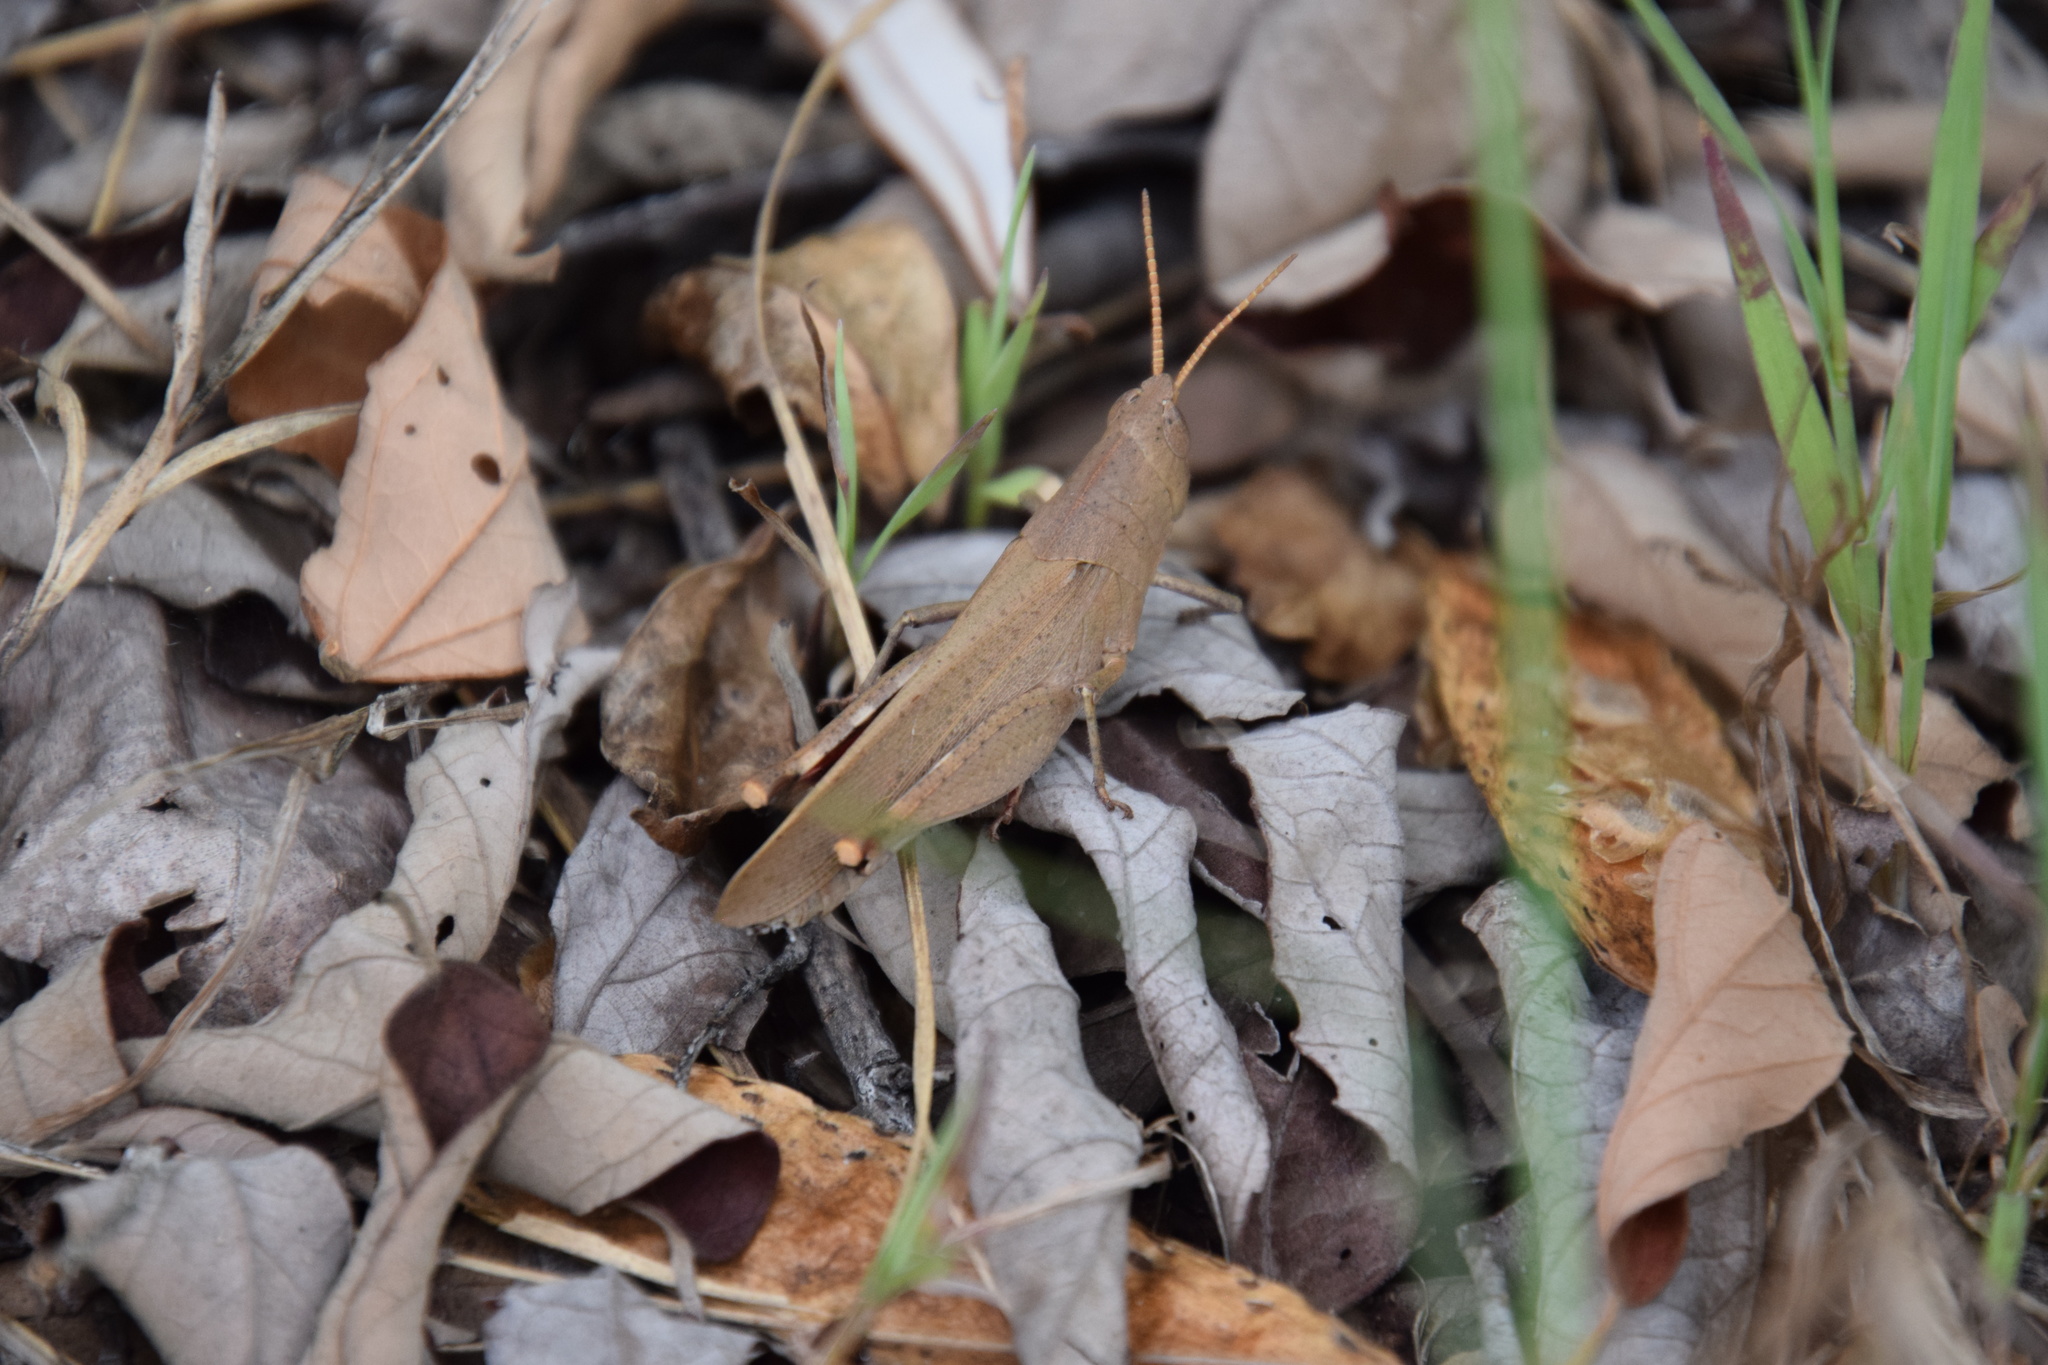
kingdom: Animalia
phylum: Arthropoda
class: Insecta
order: Orthoptera
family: Acrididae
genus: Goniaea
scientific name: Goniaea opomaloides
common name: Mimetic gumleaf grasshopper
